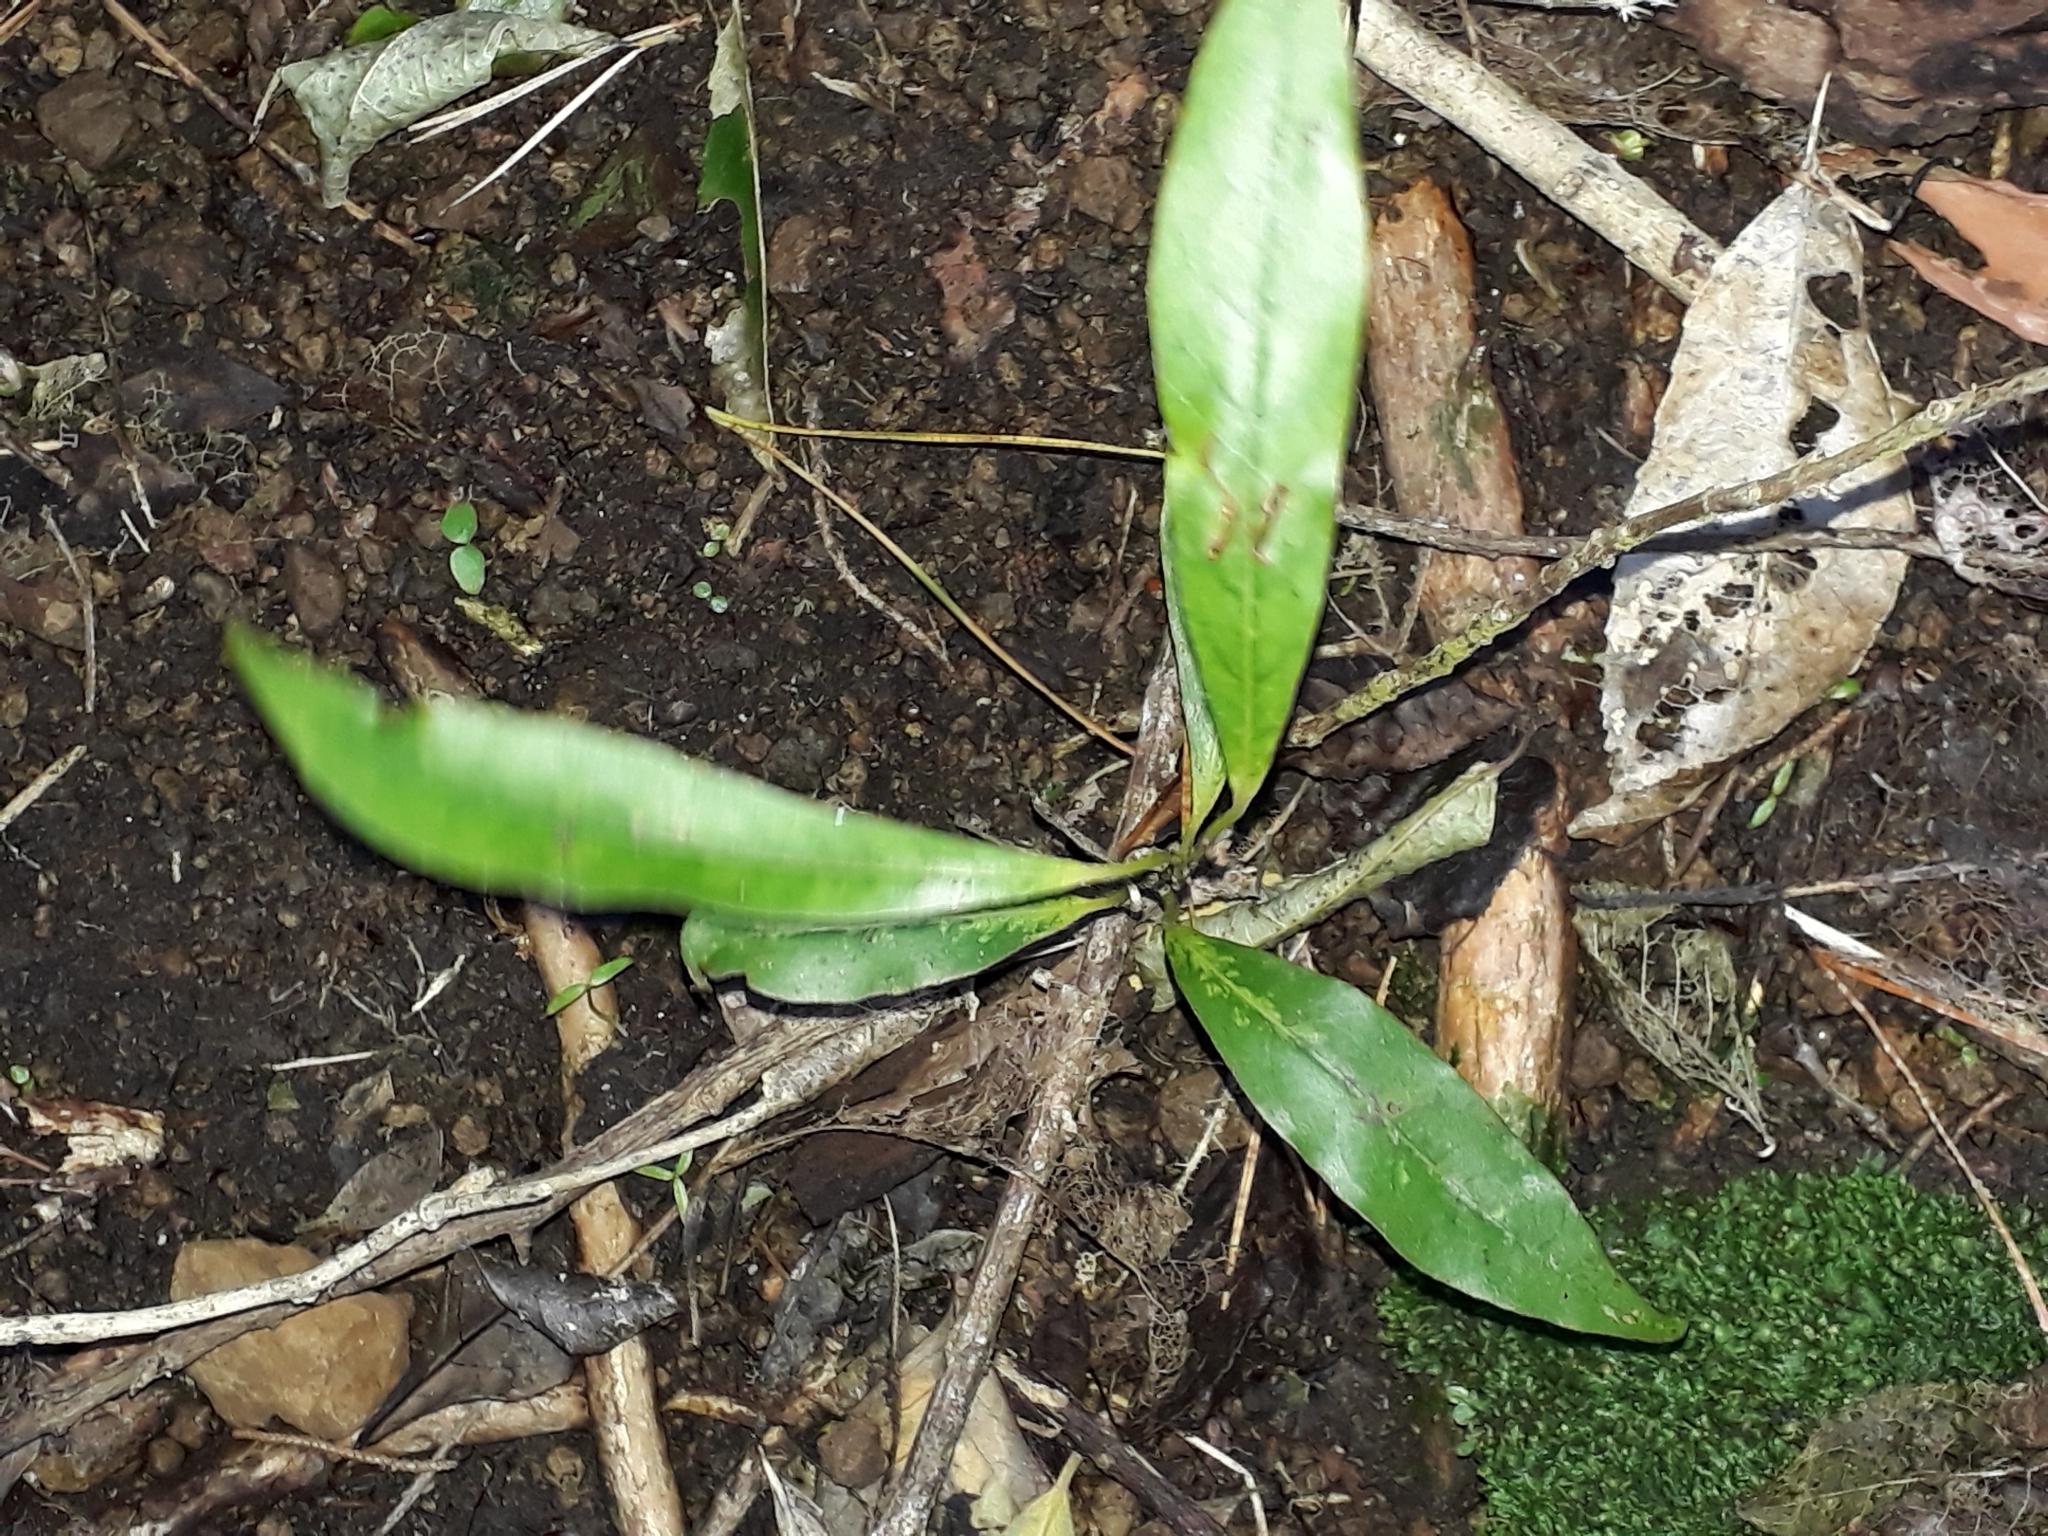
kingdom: Plantae
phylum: Tracheophyta
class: Magnoliopsida
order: Laurales
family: Lauraceae
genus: Beilschmiedia
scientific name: Beilschmiedia tawa
